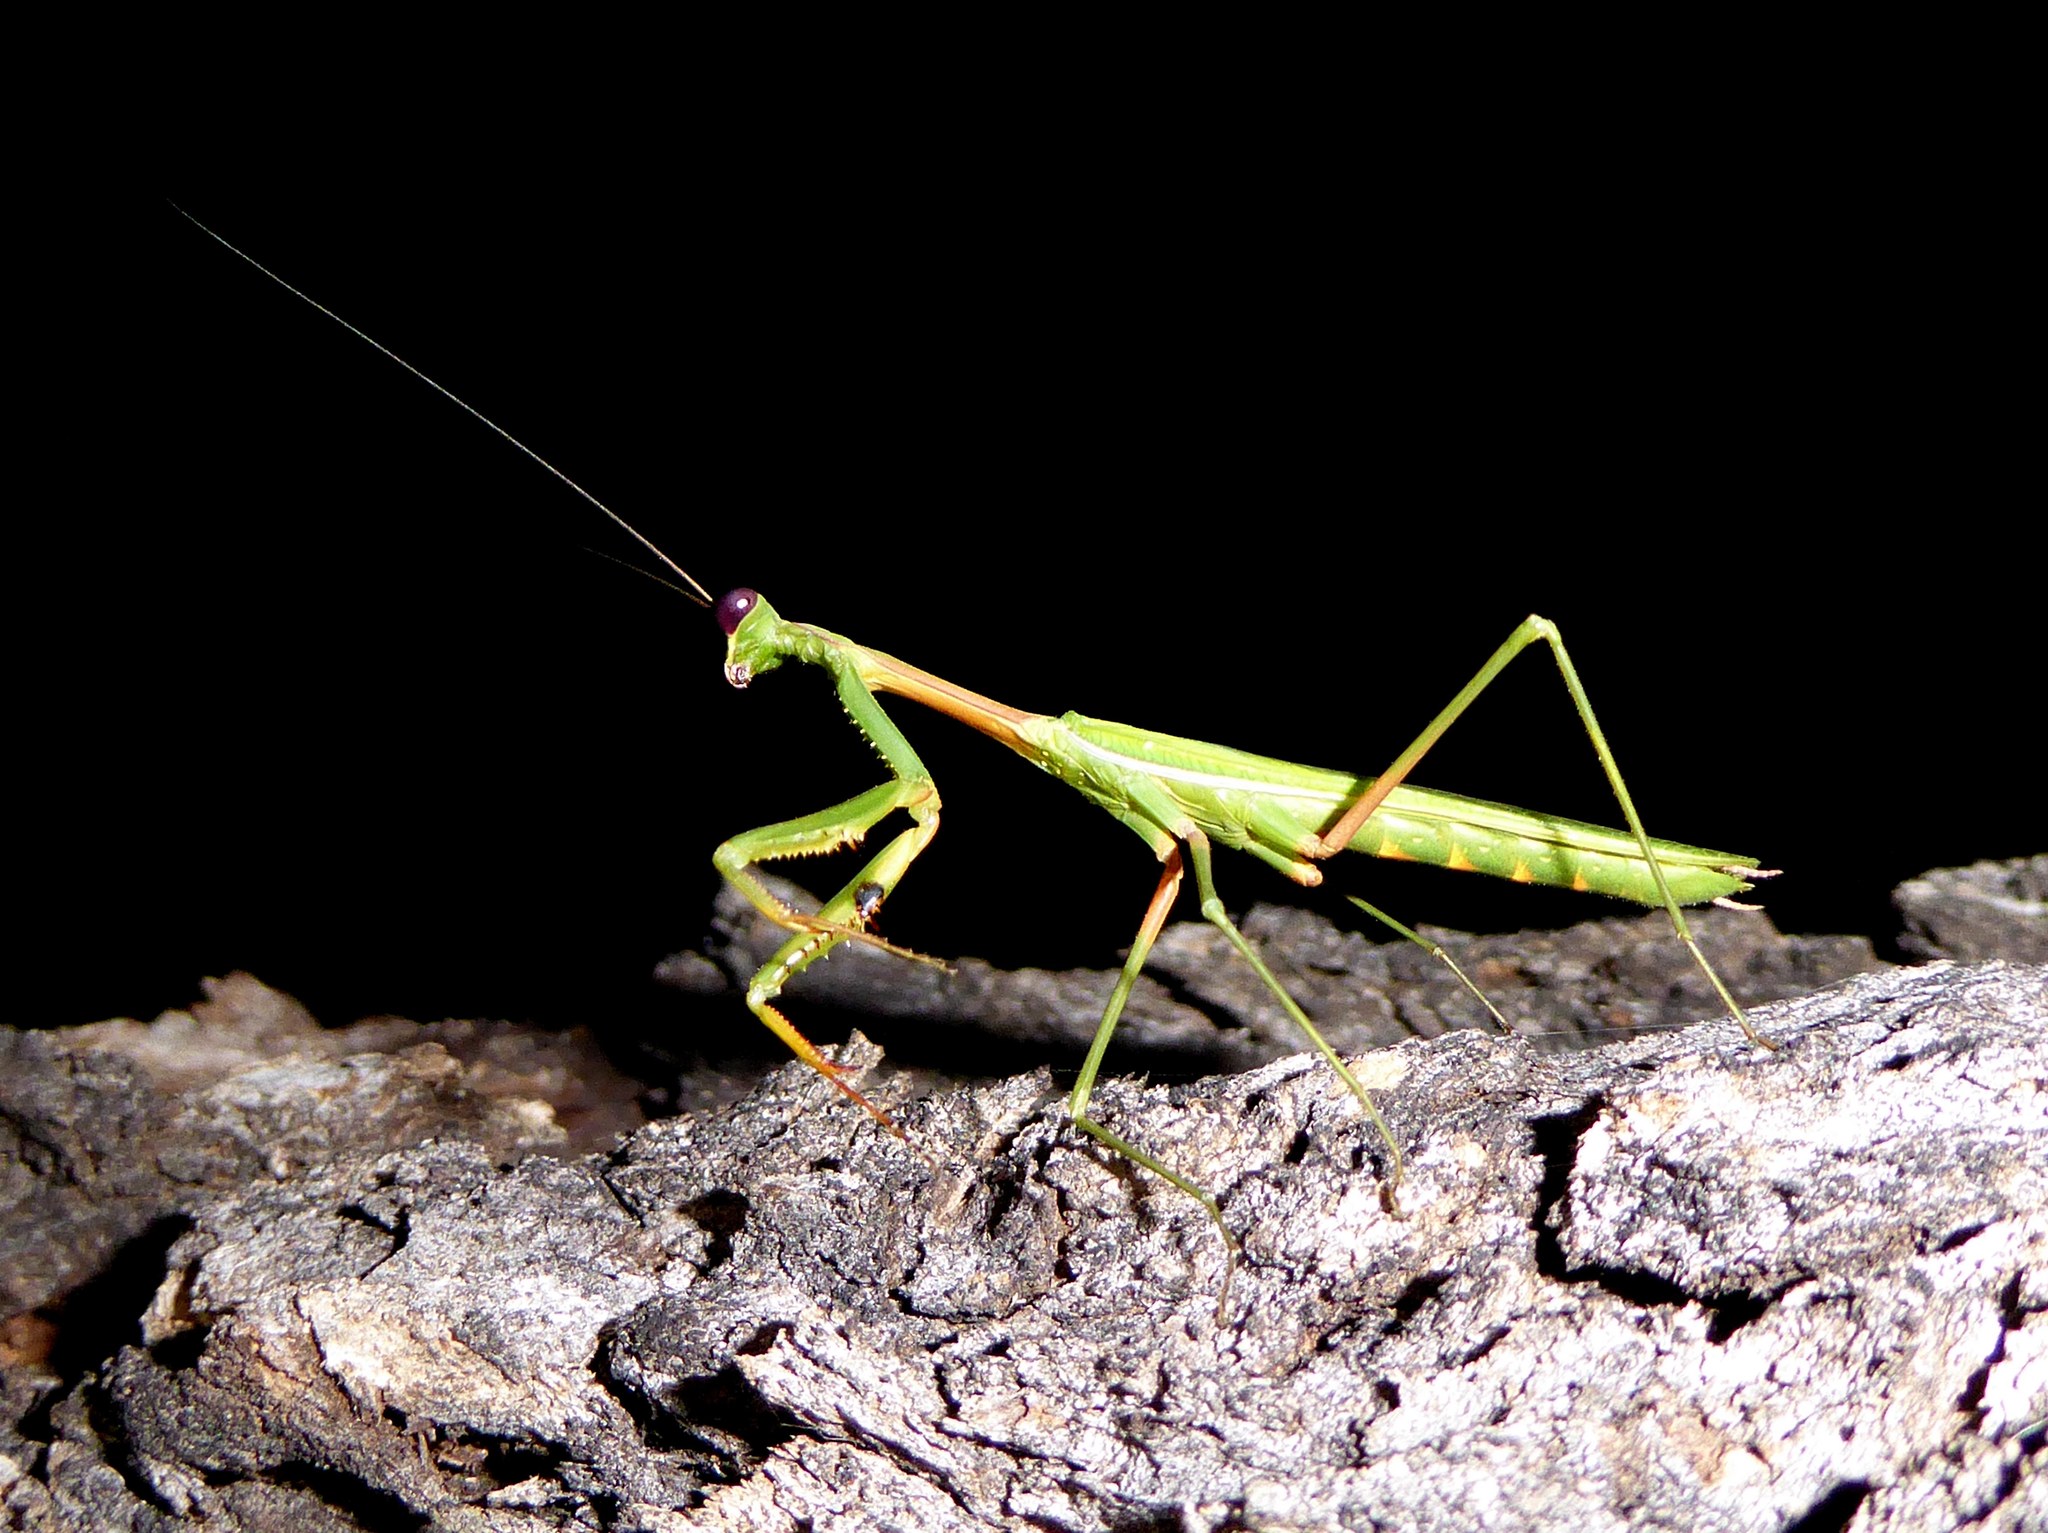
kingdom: Animalia
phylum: Arthropoda
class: Insecta
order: Mantodea
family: Mantidae
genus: Pseudomantis
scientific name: Pseudomantis albofimbriata
